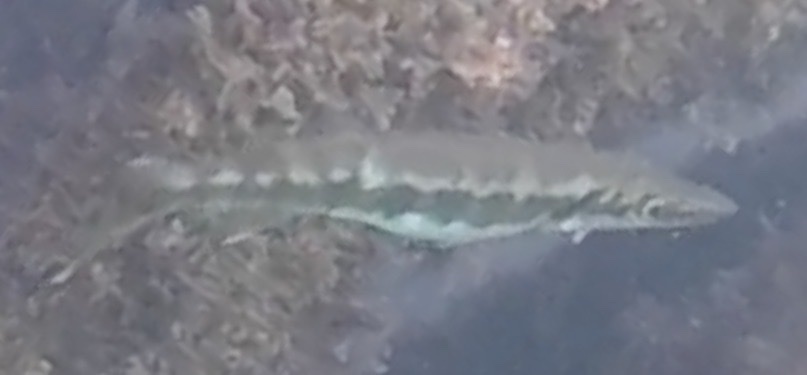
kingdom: Animalia
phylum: Chordata
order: Perciformes
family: Sphyraenidae
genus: Sphyraena
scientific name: Sphyraena barracuda
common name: Great barracuda
